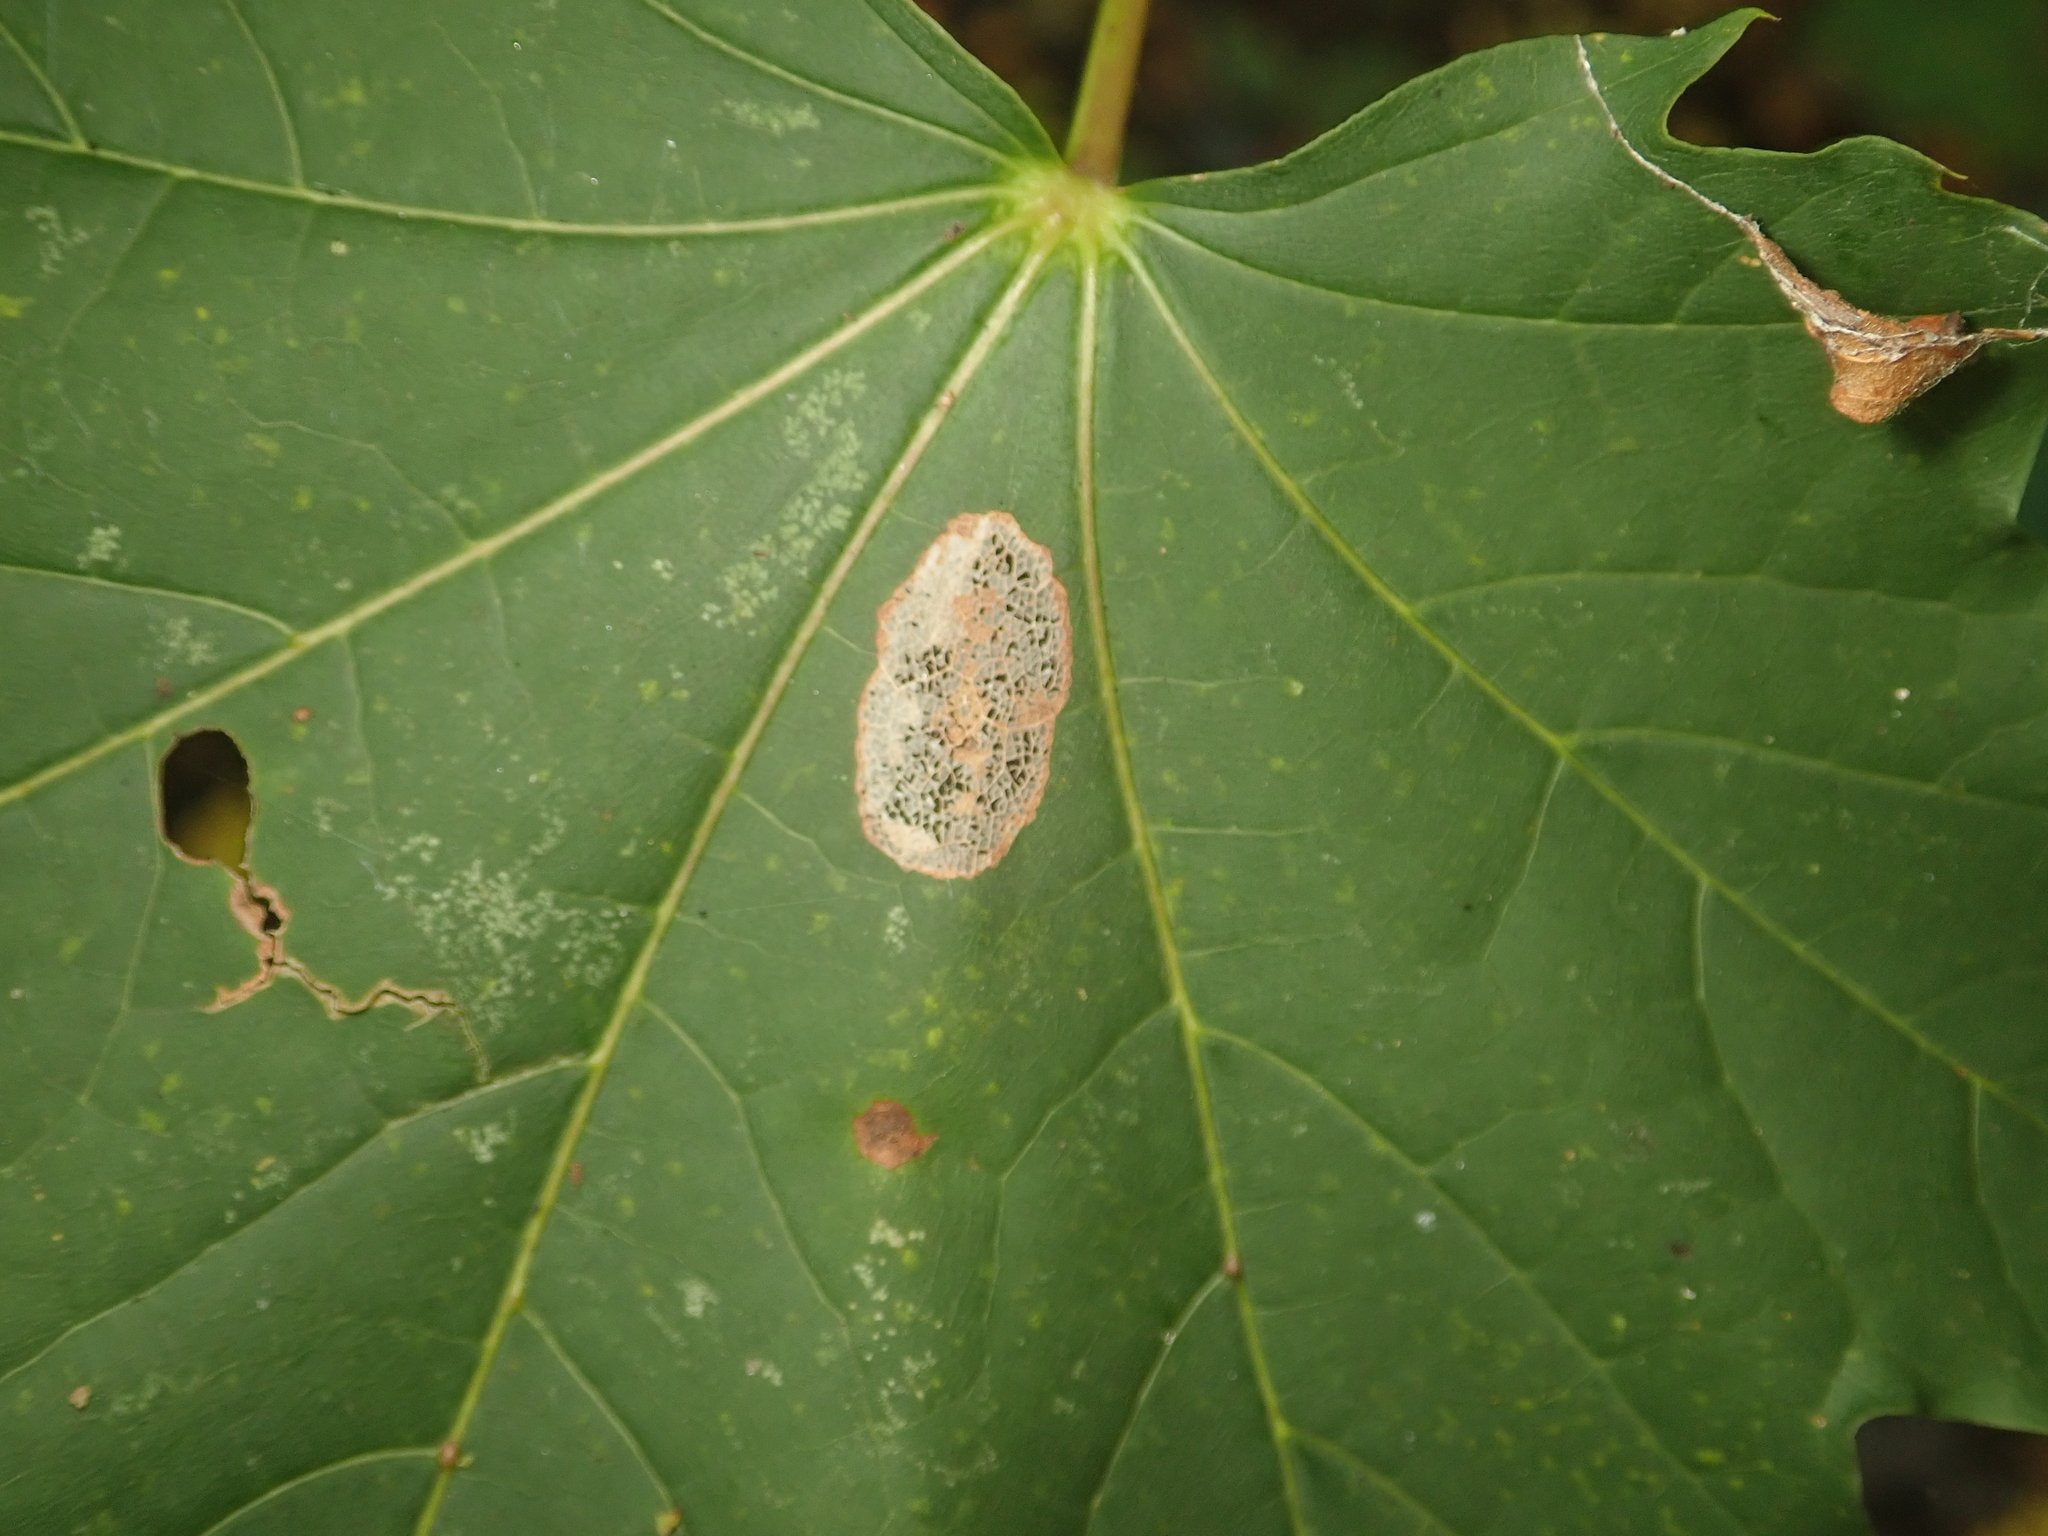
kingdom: Animalia
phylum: Arthropoda
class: Insecta
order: Lepidoptera
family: Gracillariidae
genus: Phyllonorycter
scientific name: Phyllonorycter joannisi
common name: White-bodied midget
